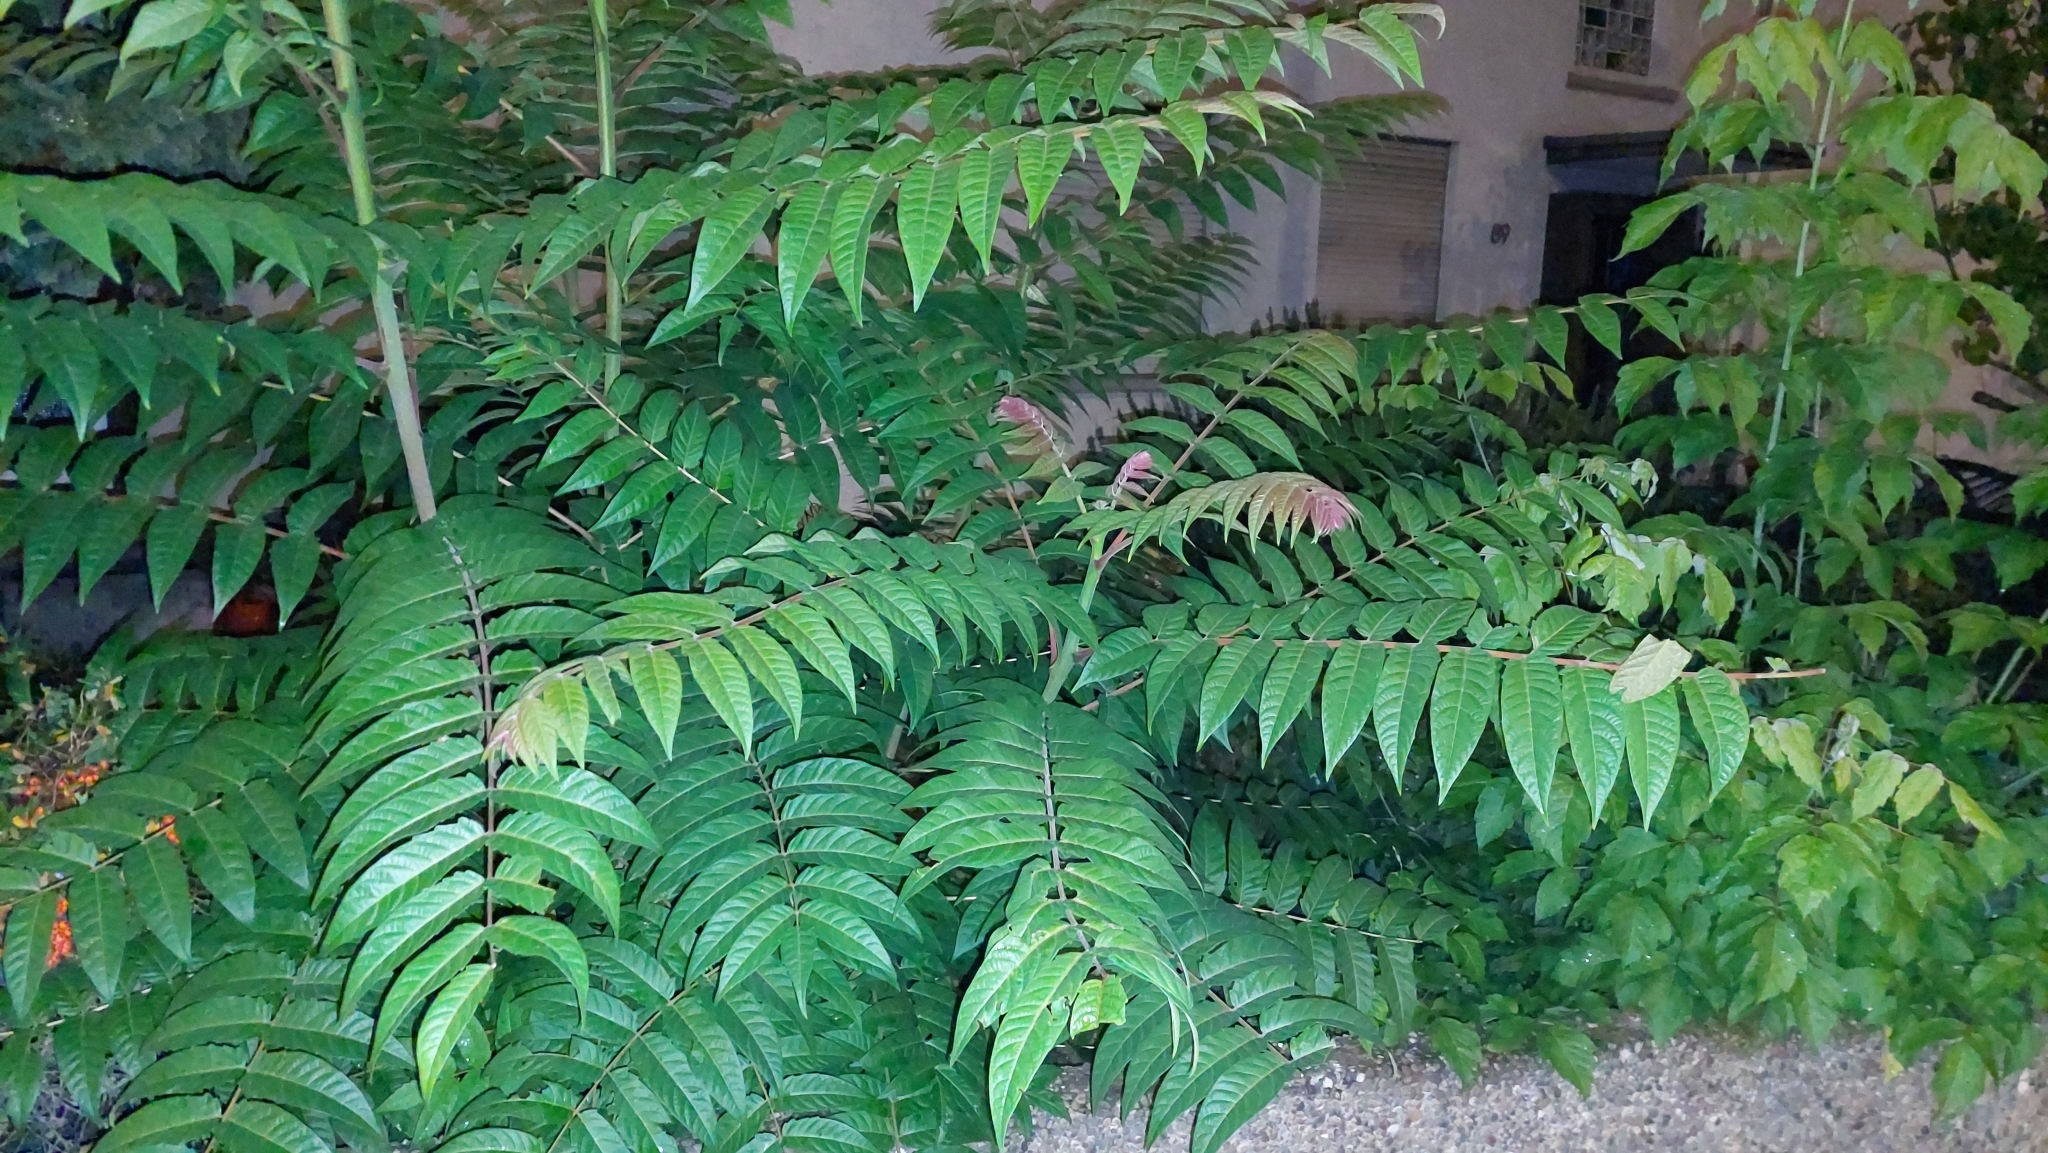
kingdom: Plantae
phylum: Tracheophyta
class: Magnoliopsida
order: Sapindales
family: Simaroubaceae
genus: Ailanthus
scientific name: Ailanthus altissima
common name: Tree-of-heaven
